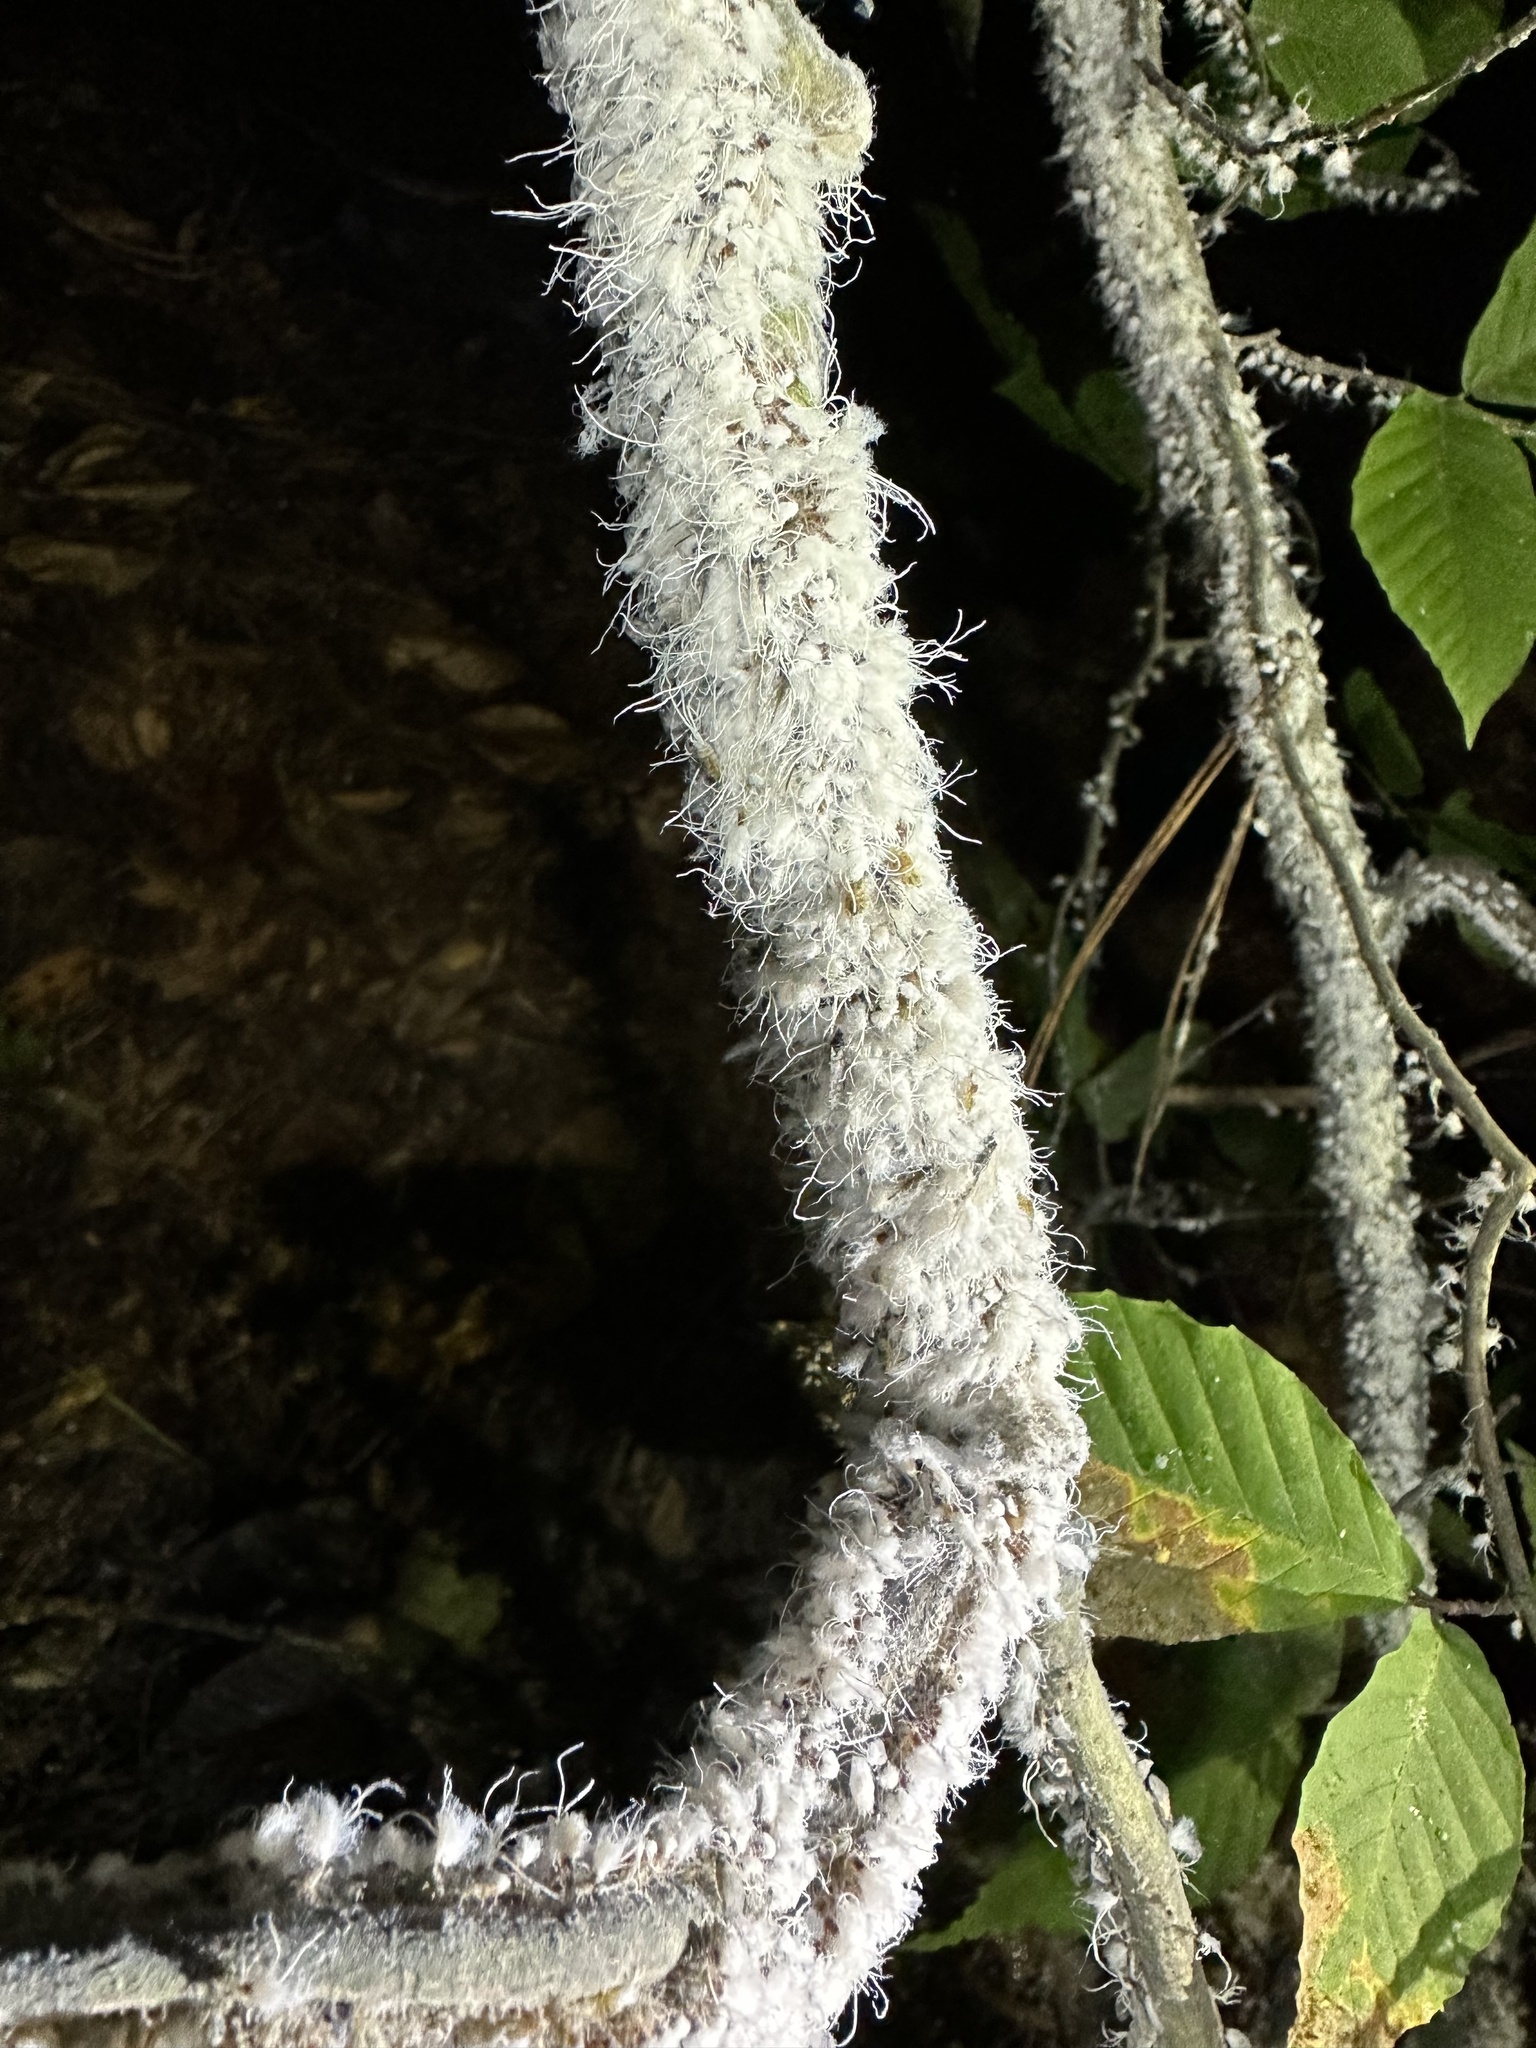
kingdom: Animalia
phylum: Arthropoda
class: Insecta
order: Hemiptera
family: Aphididae
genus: Grylloprociphilus
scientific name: Grylloprociphilus imbricator
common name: Beech blight aphid
